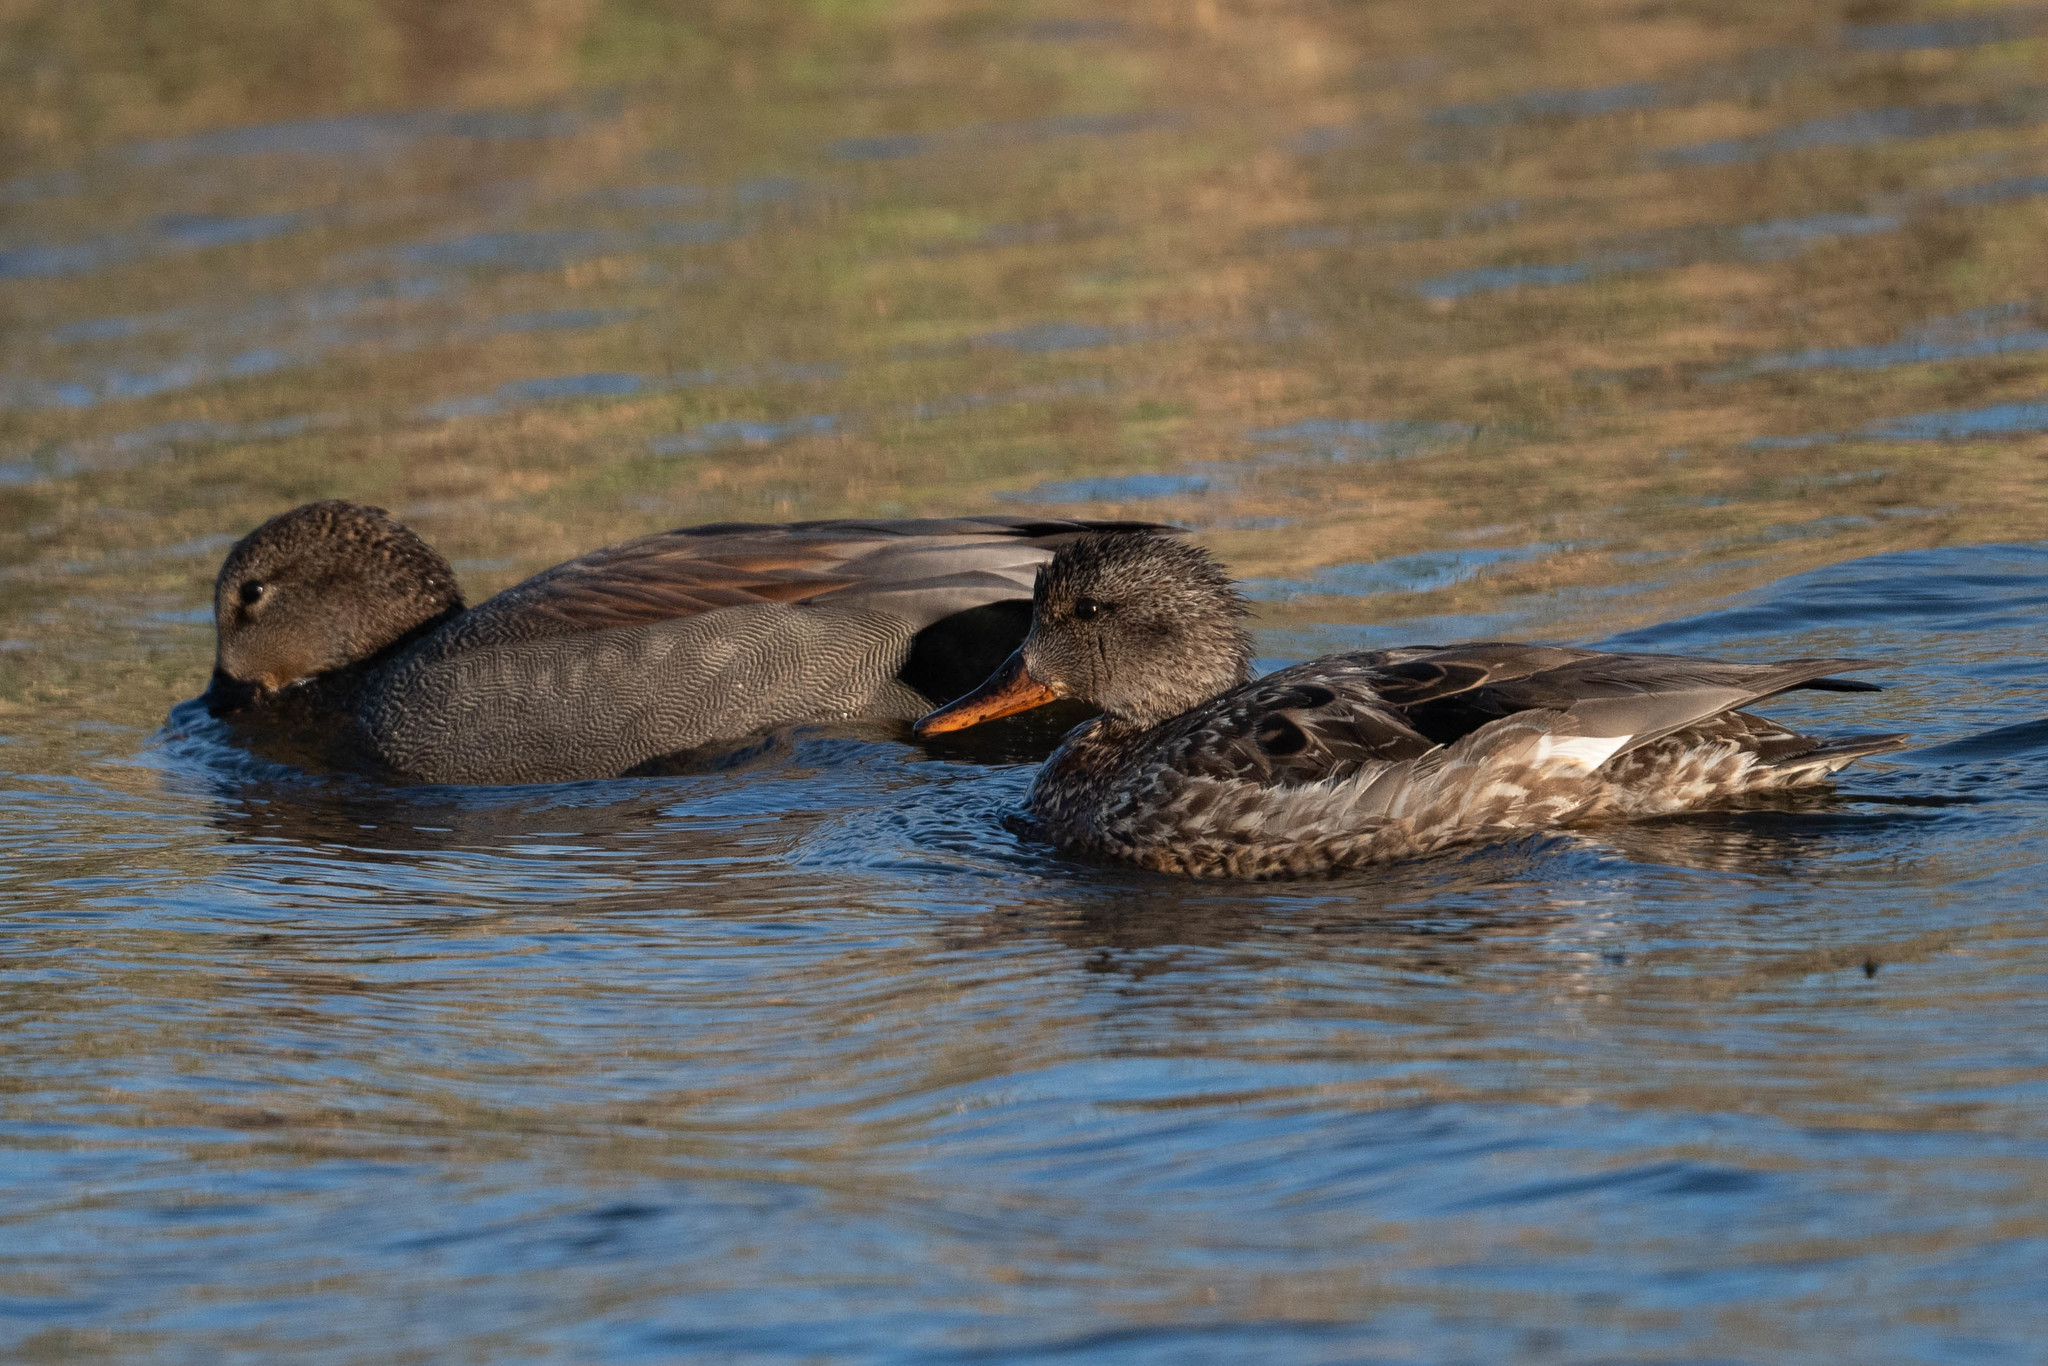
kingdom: Animalia
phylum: Chordata
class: Aves
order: Anseriformes
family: Anatidae
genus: Mareca
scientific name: Mareca strepera
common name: Gadwall
